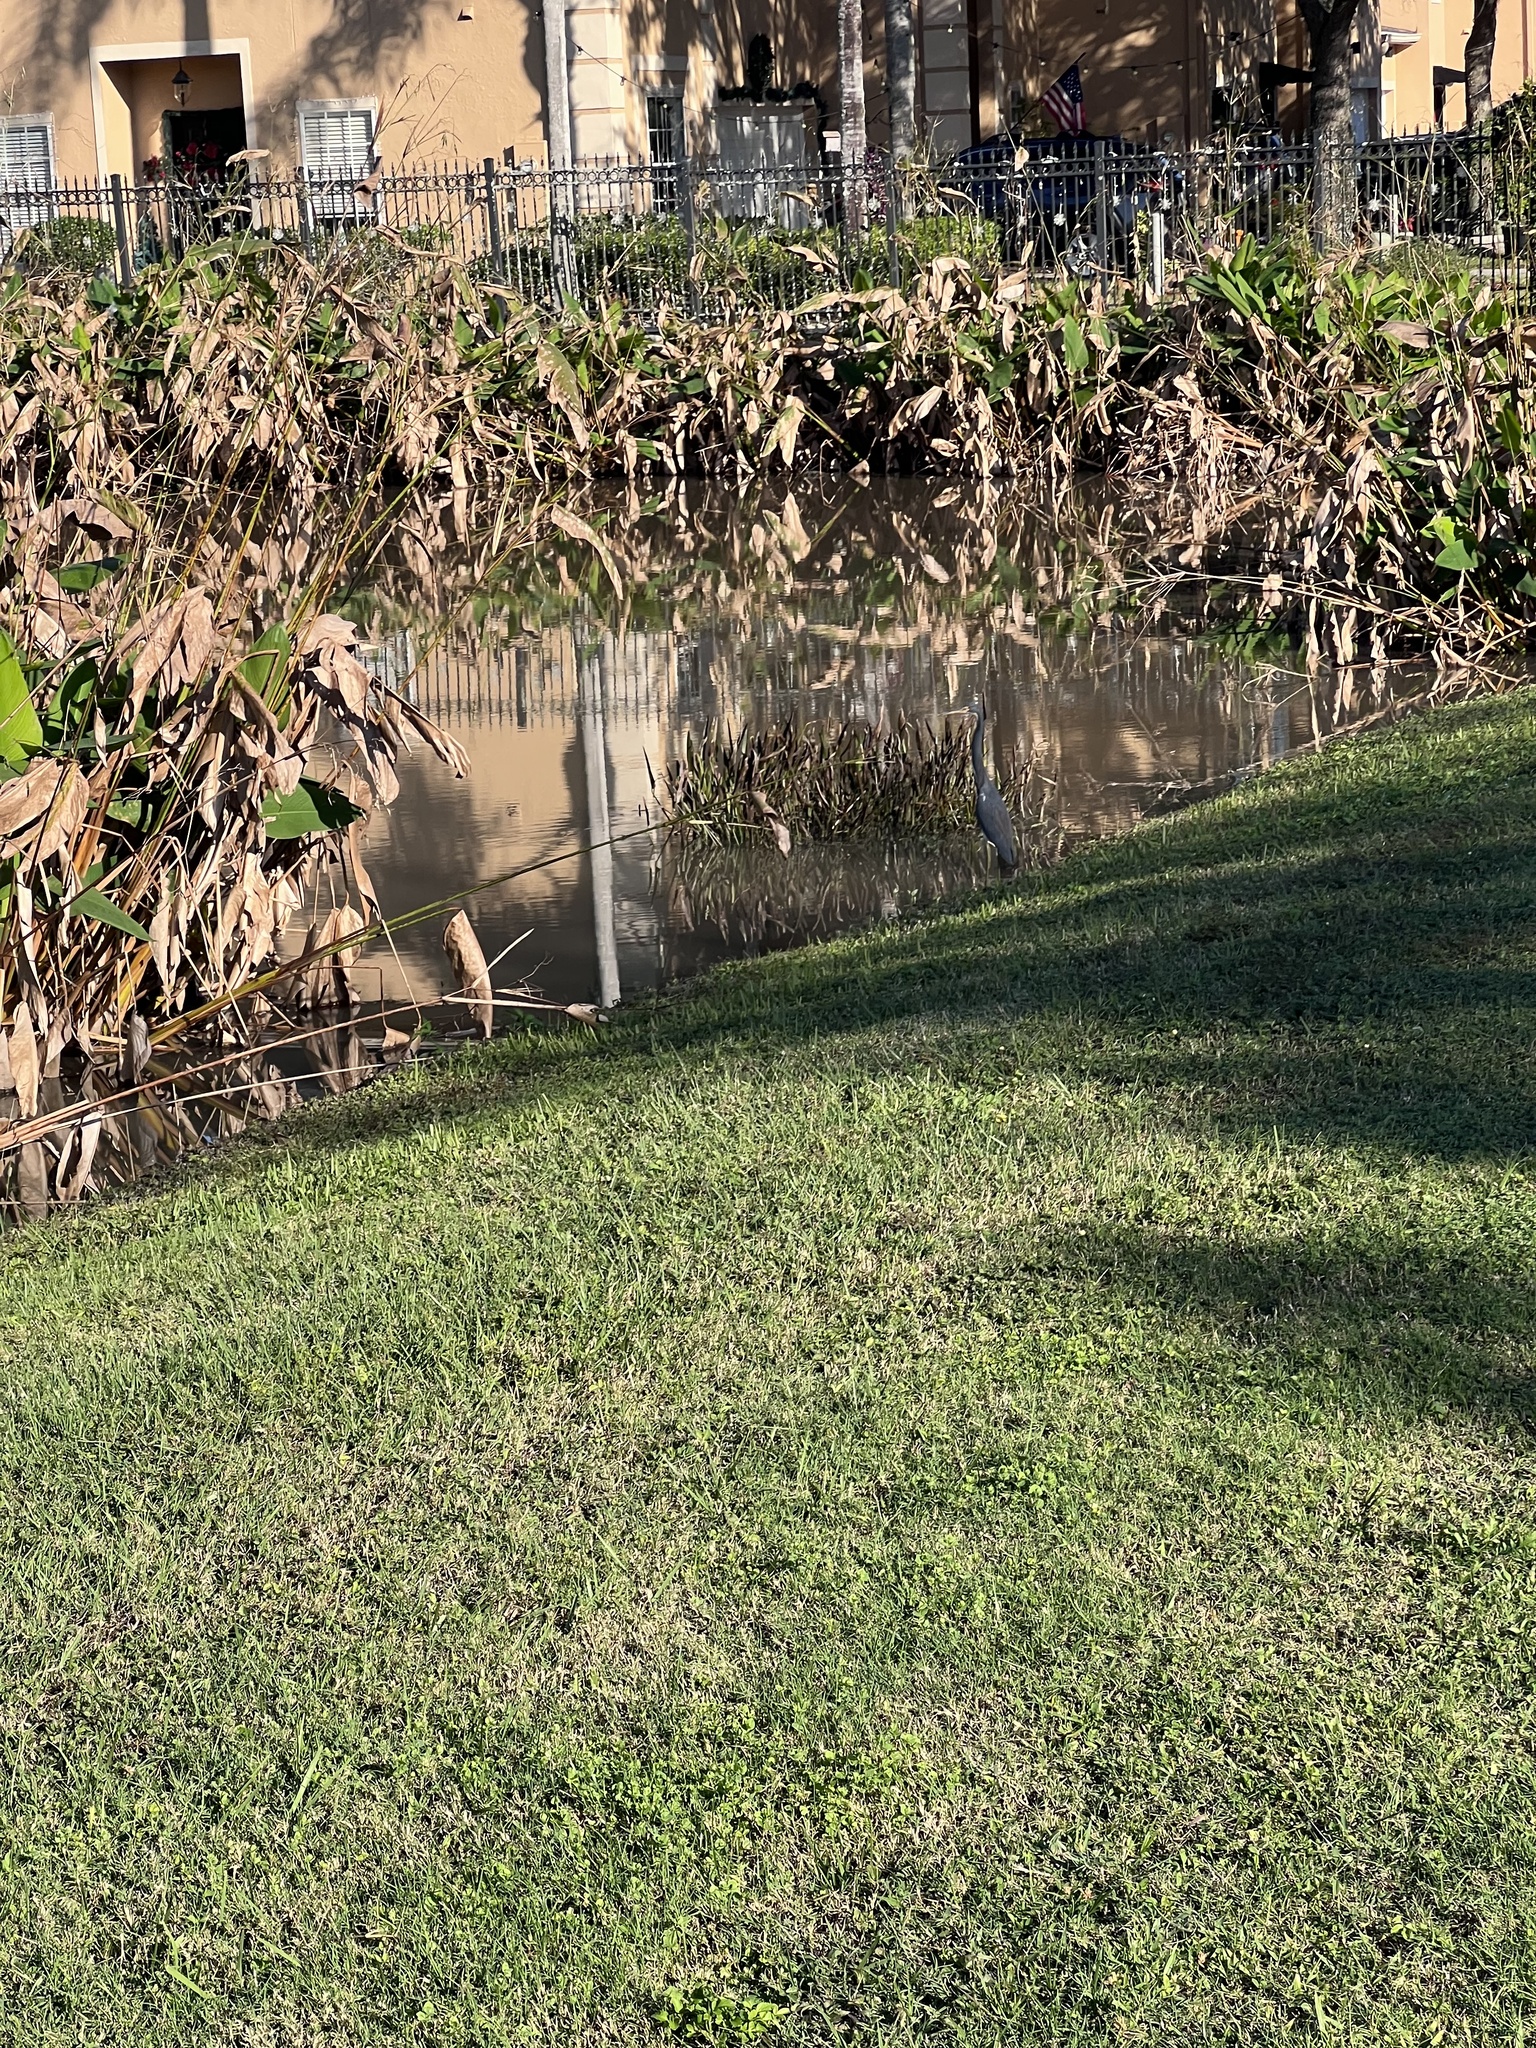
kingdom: Animalia
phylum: Chordata
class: Aves
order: Pelecaniformes
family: Ardeidae
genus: Egretta
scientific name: Egretta tricolor
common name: Tricolored heron
